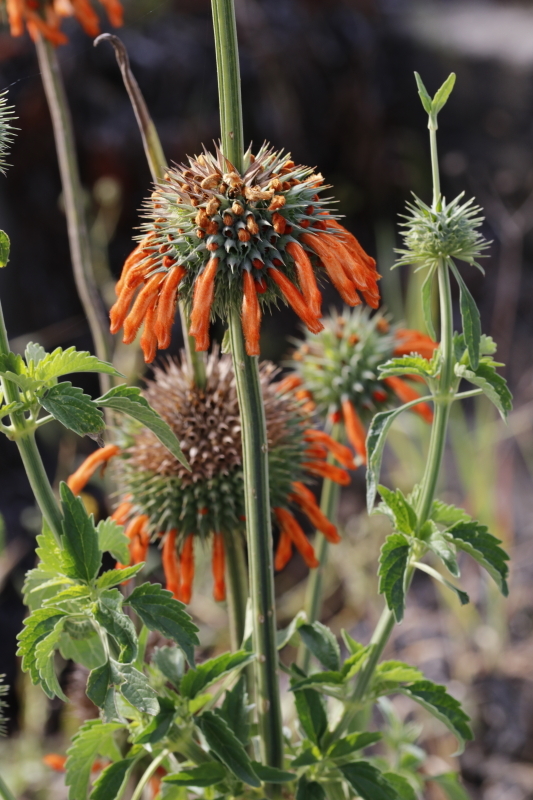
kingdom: Plantae
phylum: Tracheophyta
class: Magnoliopsida
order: Lamiales
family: Lamiaceae
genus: Leonotis
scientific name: Leonotis nepetifolia
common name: Christmas candlestick
